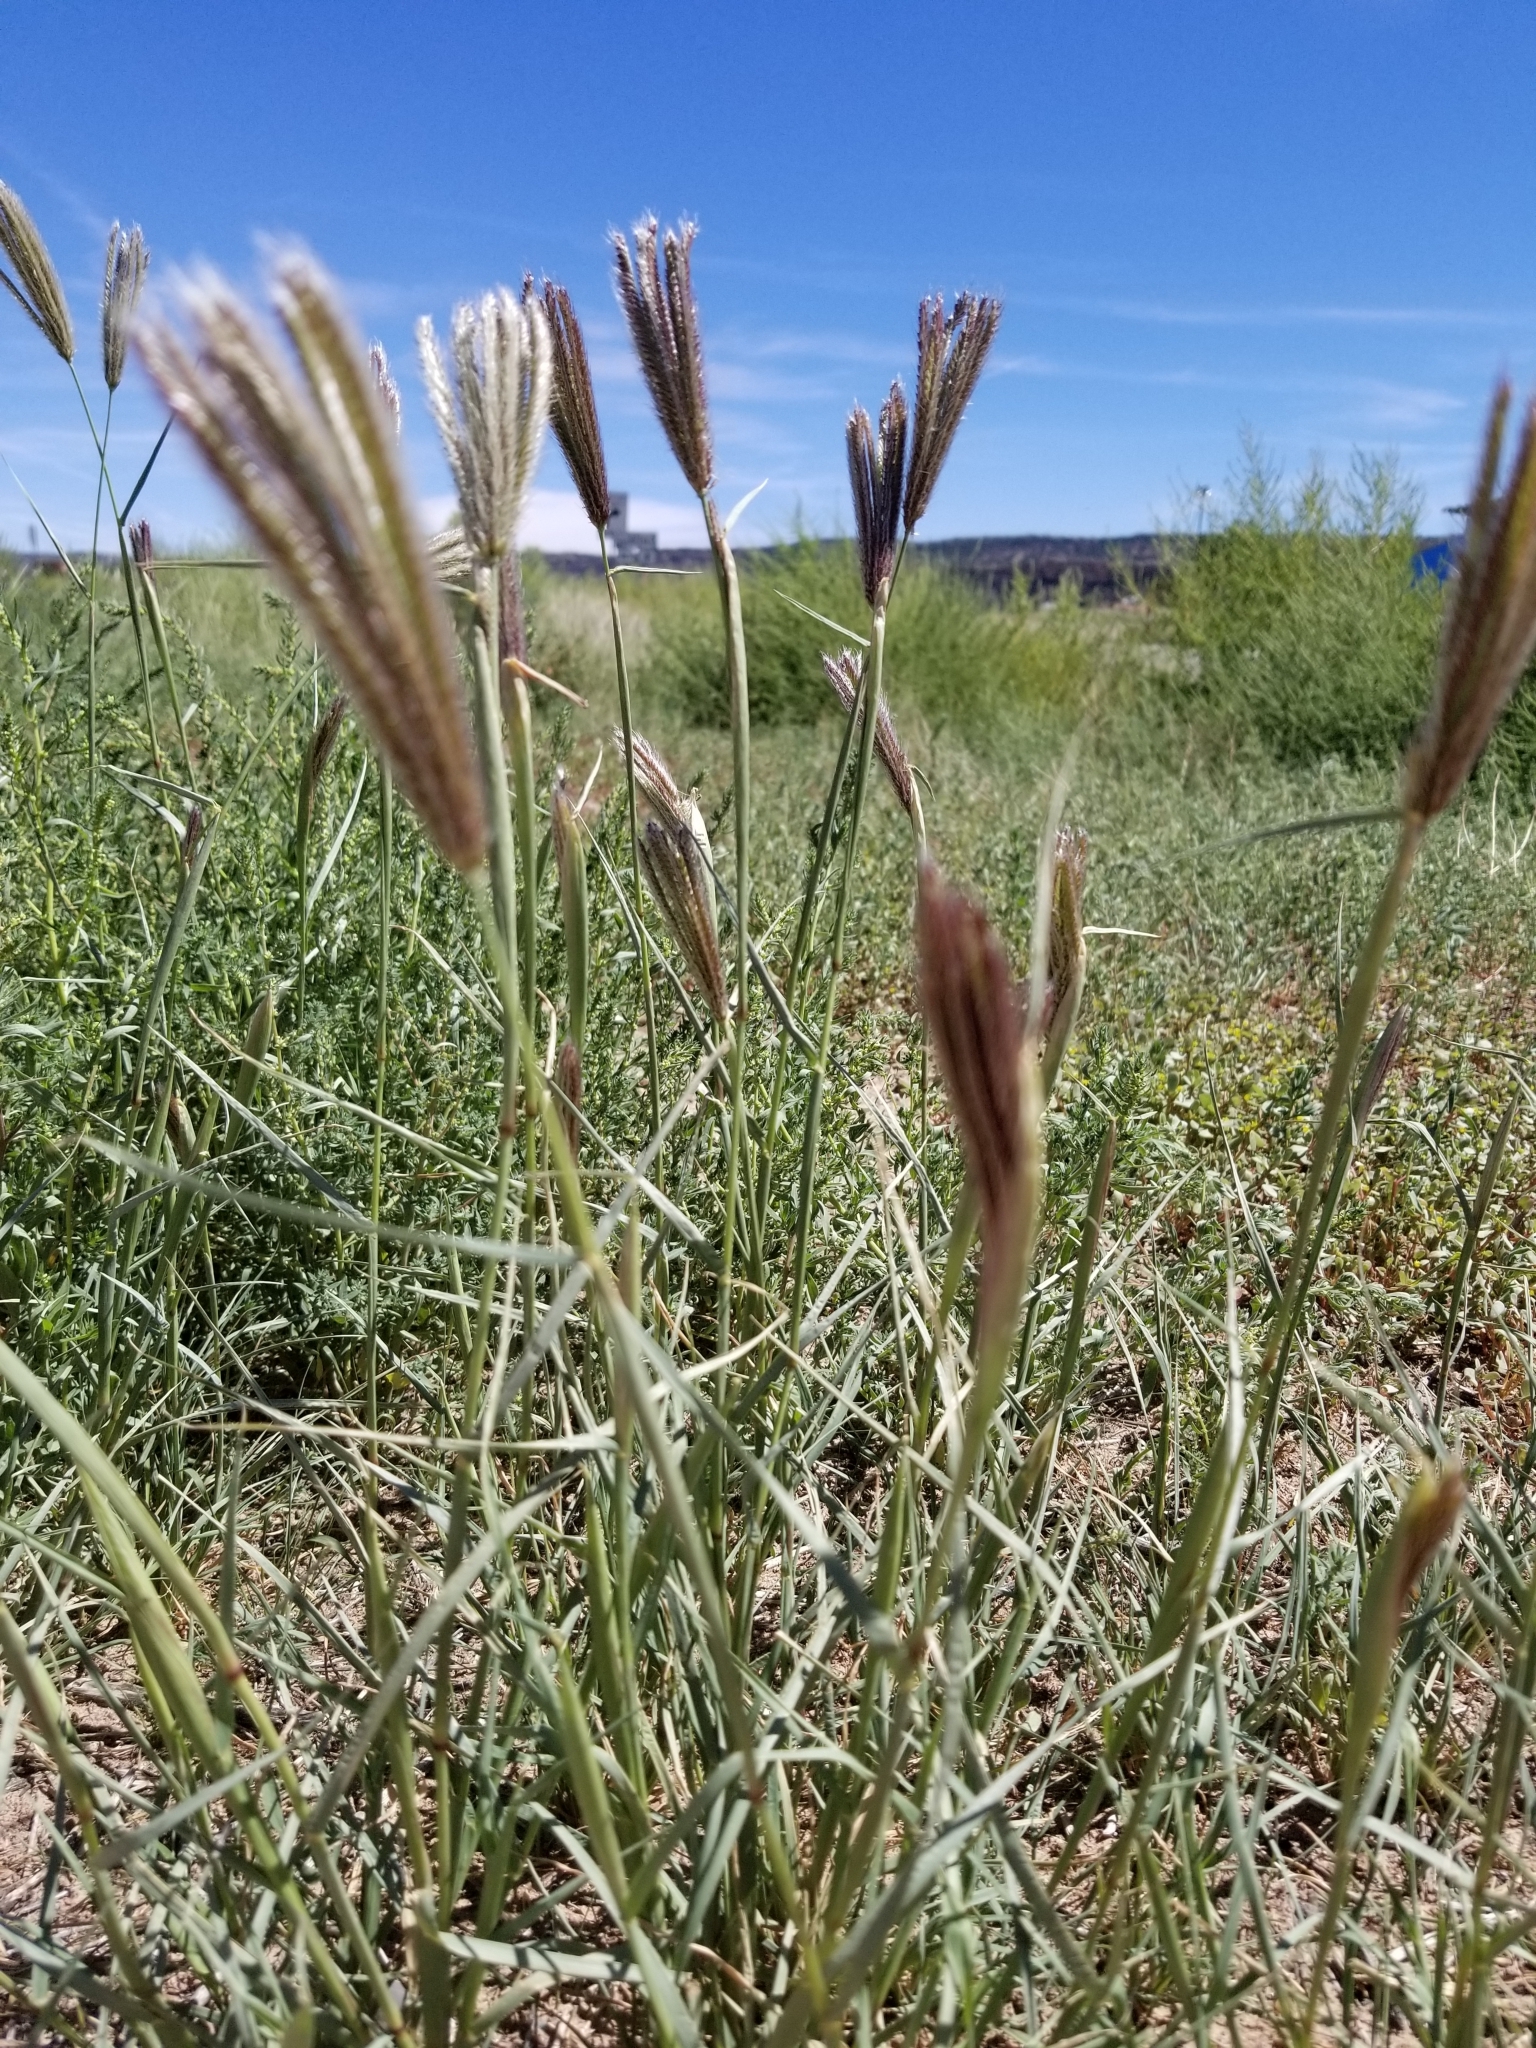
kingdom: Plantae
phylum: Tracheophyta
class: Liliopsida
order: Poales
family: Poaceae
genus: Chloris
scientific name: Chloris virgata
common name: Feathery rhodes-grass
